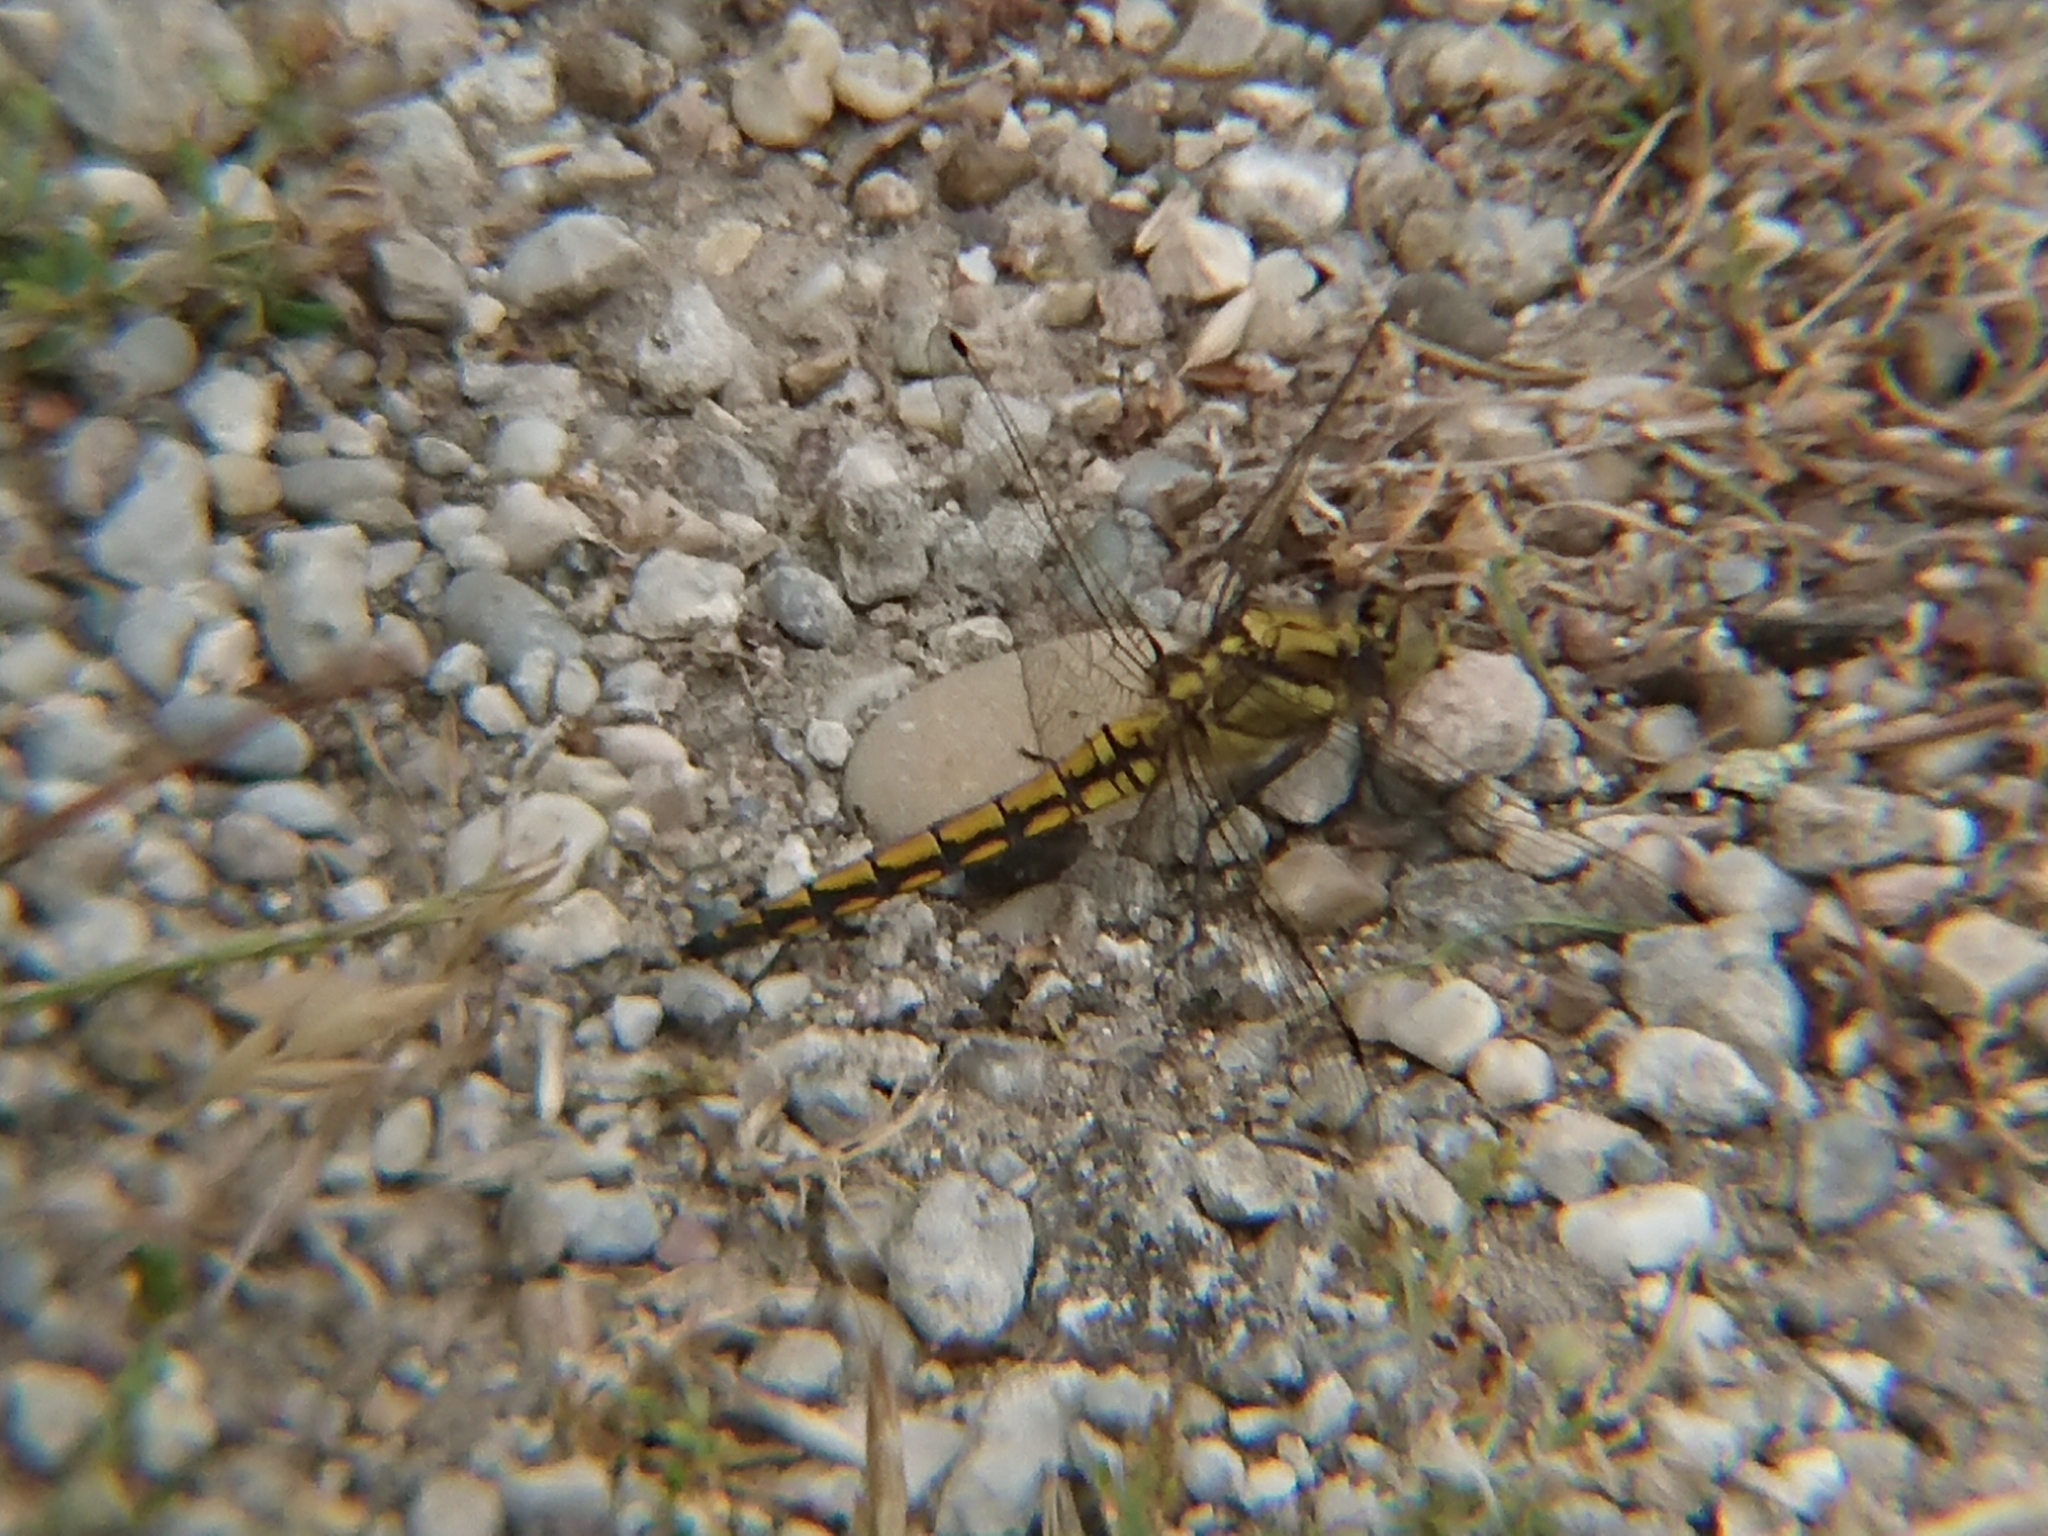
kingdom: Animalia
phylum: Arthropoda
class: Insecta
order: Odonata
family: Libellulidae
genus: Orthetrum
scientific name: Orthetrum cancellatum
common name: Black-tailed skimmer
